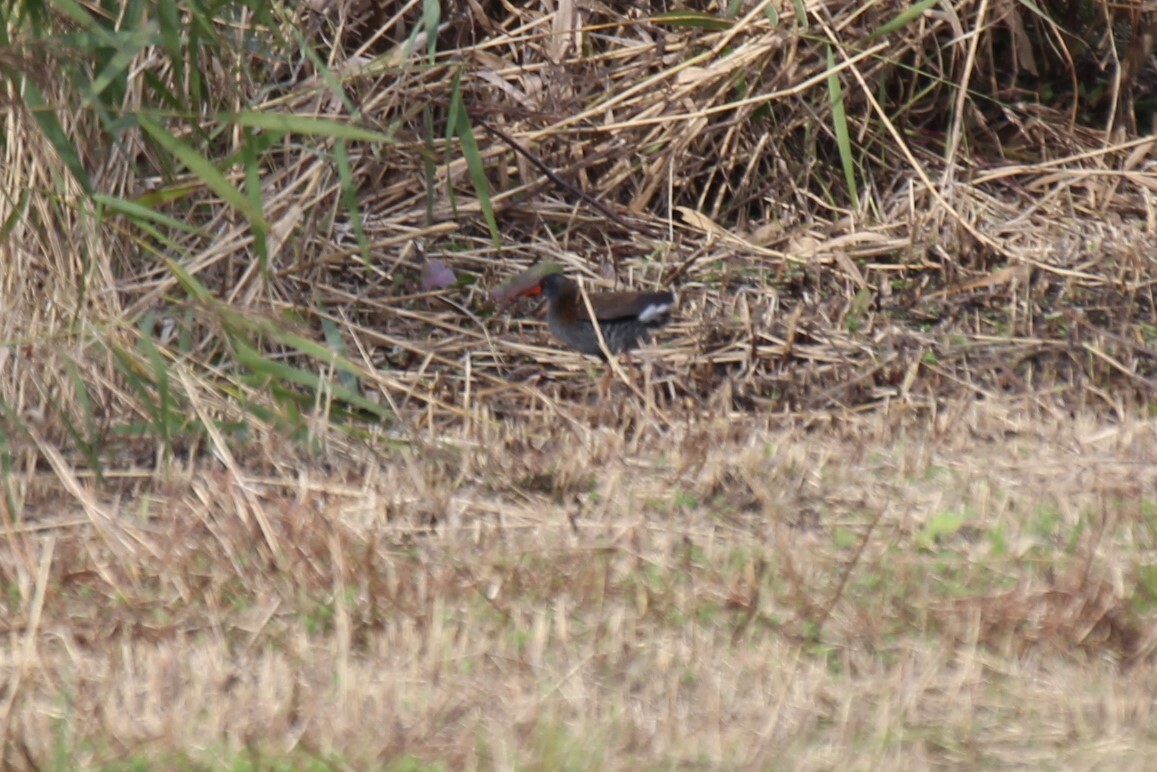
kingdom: Animalia
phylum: Chordata
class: Aves
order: Gruiformes
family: Rallidae
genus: Rallus
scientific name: Rallus aquaticus
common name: Water rail
